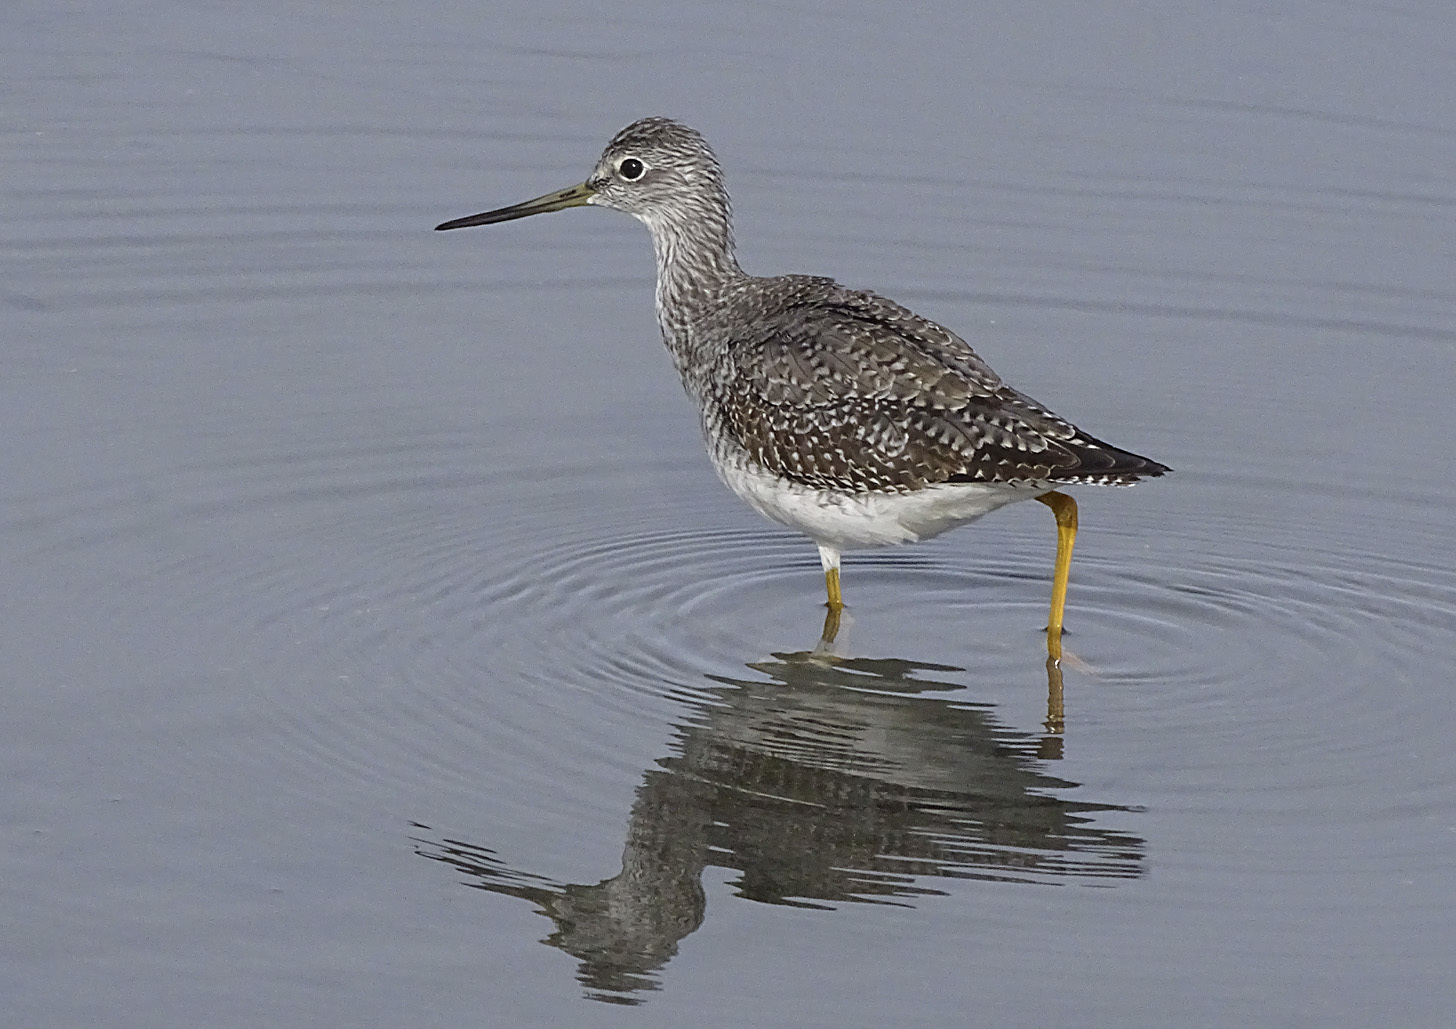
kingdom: Animalia
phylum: Chordata
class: Aves
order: Charadriiformes
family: Scolopacidae
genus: Tringa
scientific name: Tringa melanoleuca
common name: Greater yellowlegs
